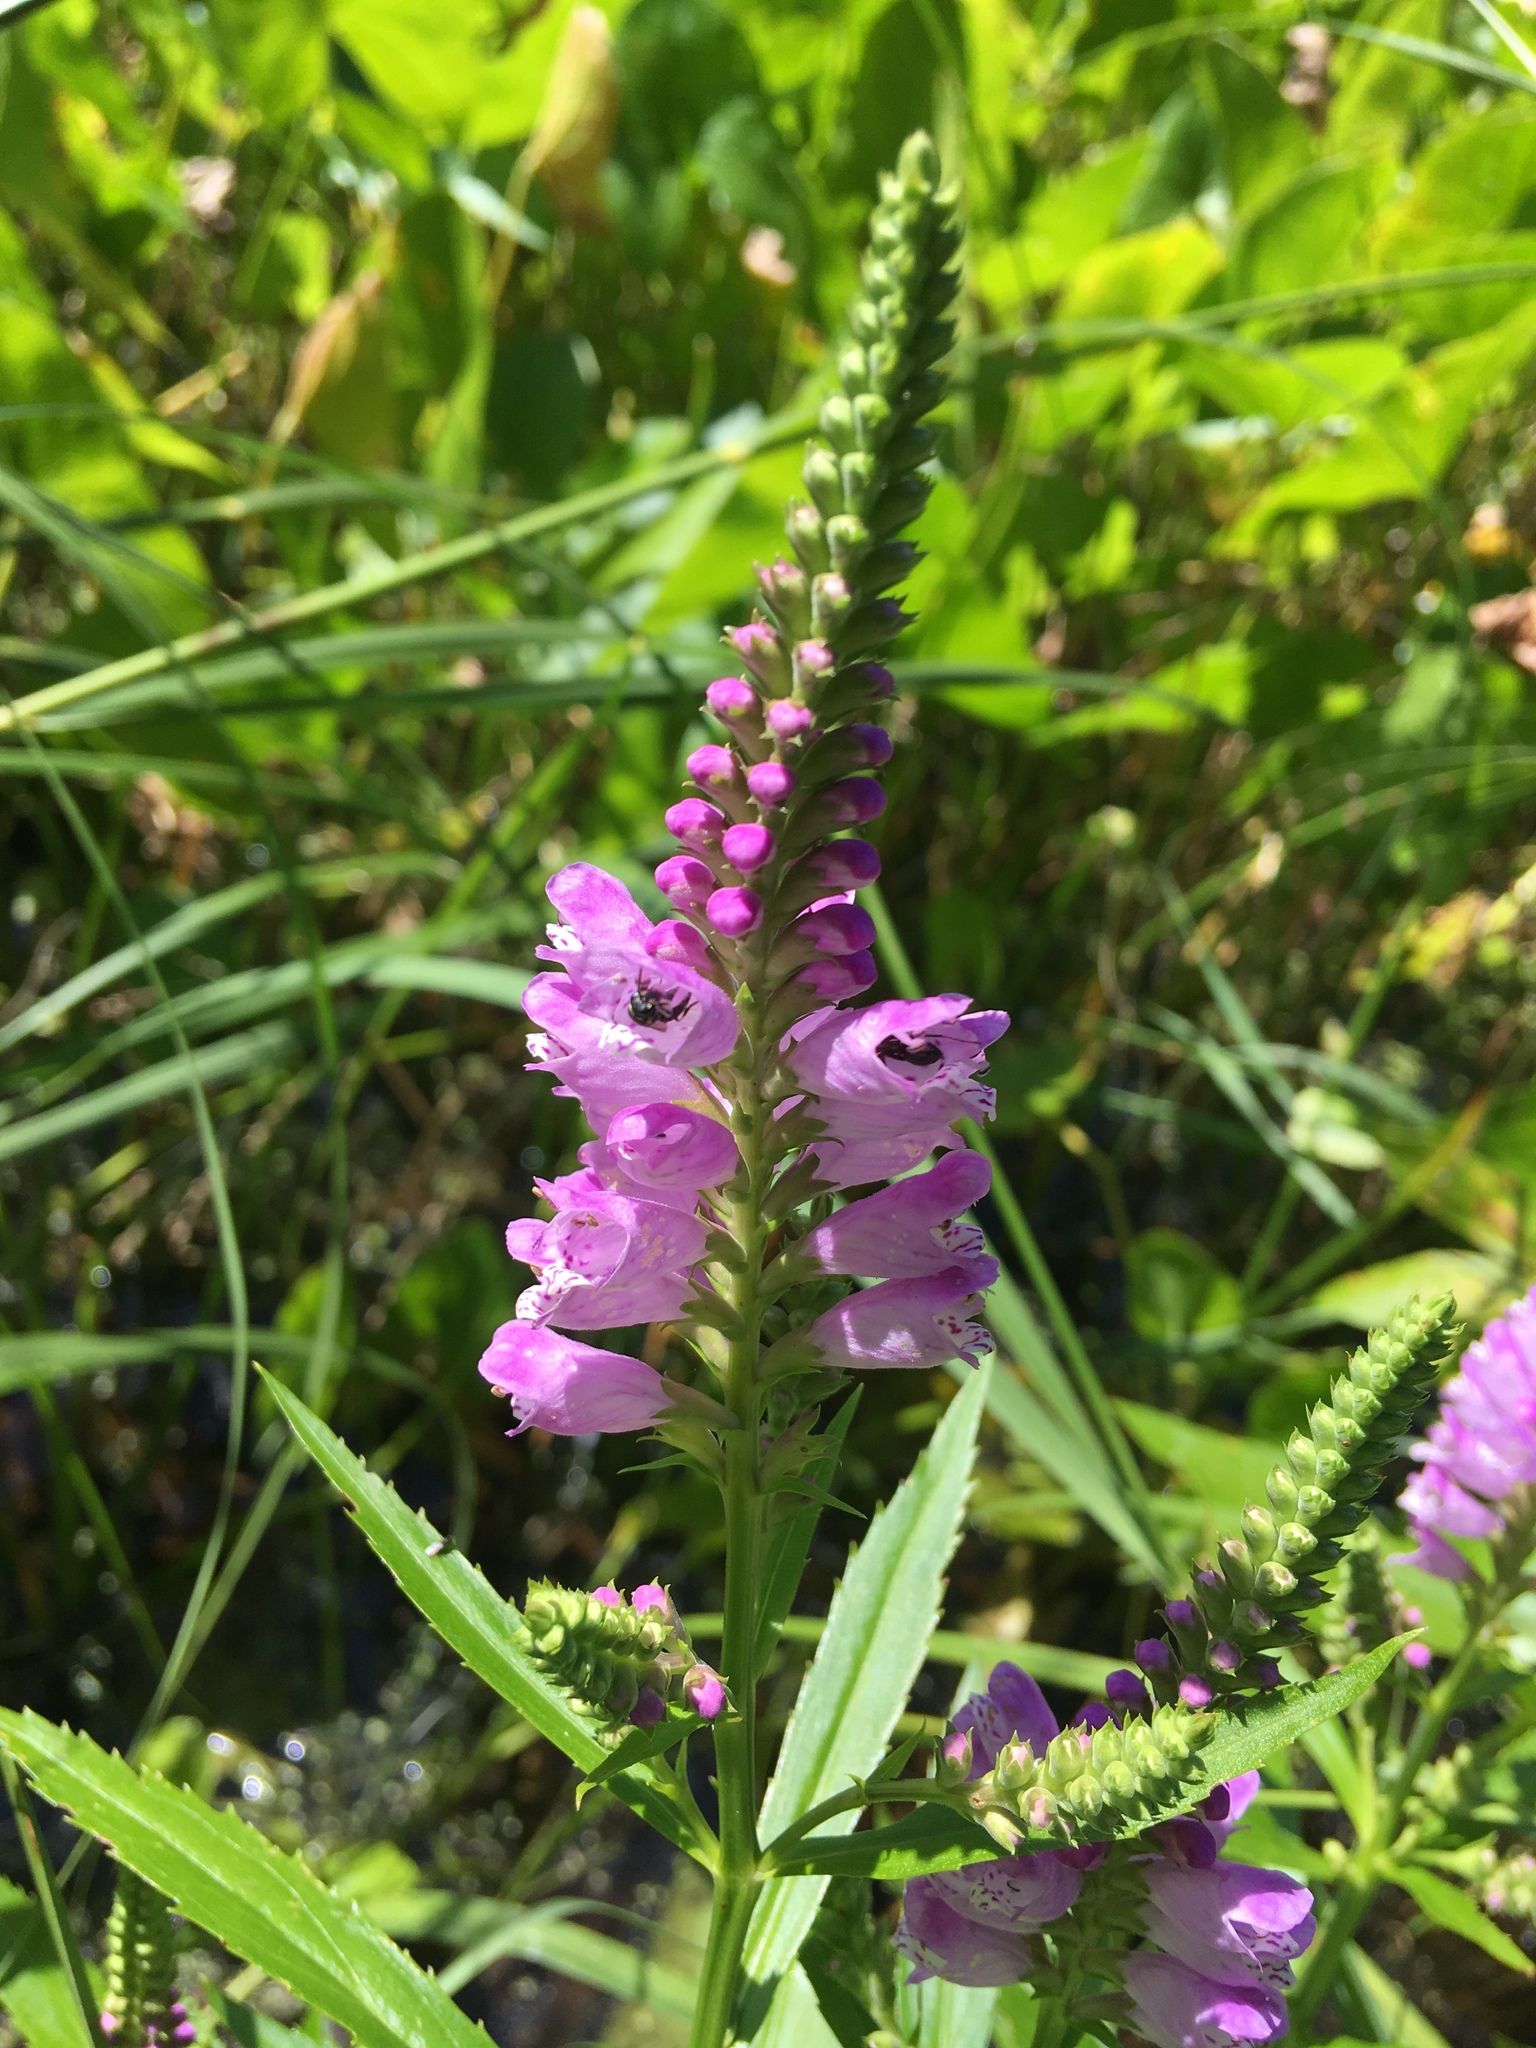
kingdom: Plantae
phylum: Tracheophyta
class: Magnoliopsida
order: Lamiales
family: Lamiaceae
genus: Physostegia
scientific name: Physostegia virginiana
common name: Obedient-plant
